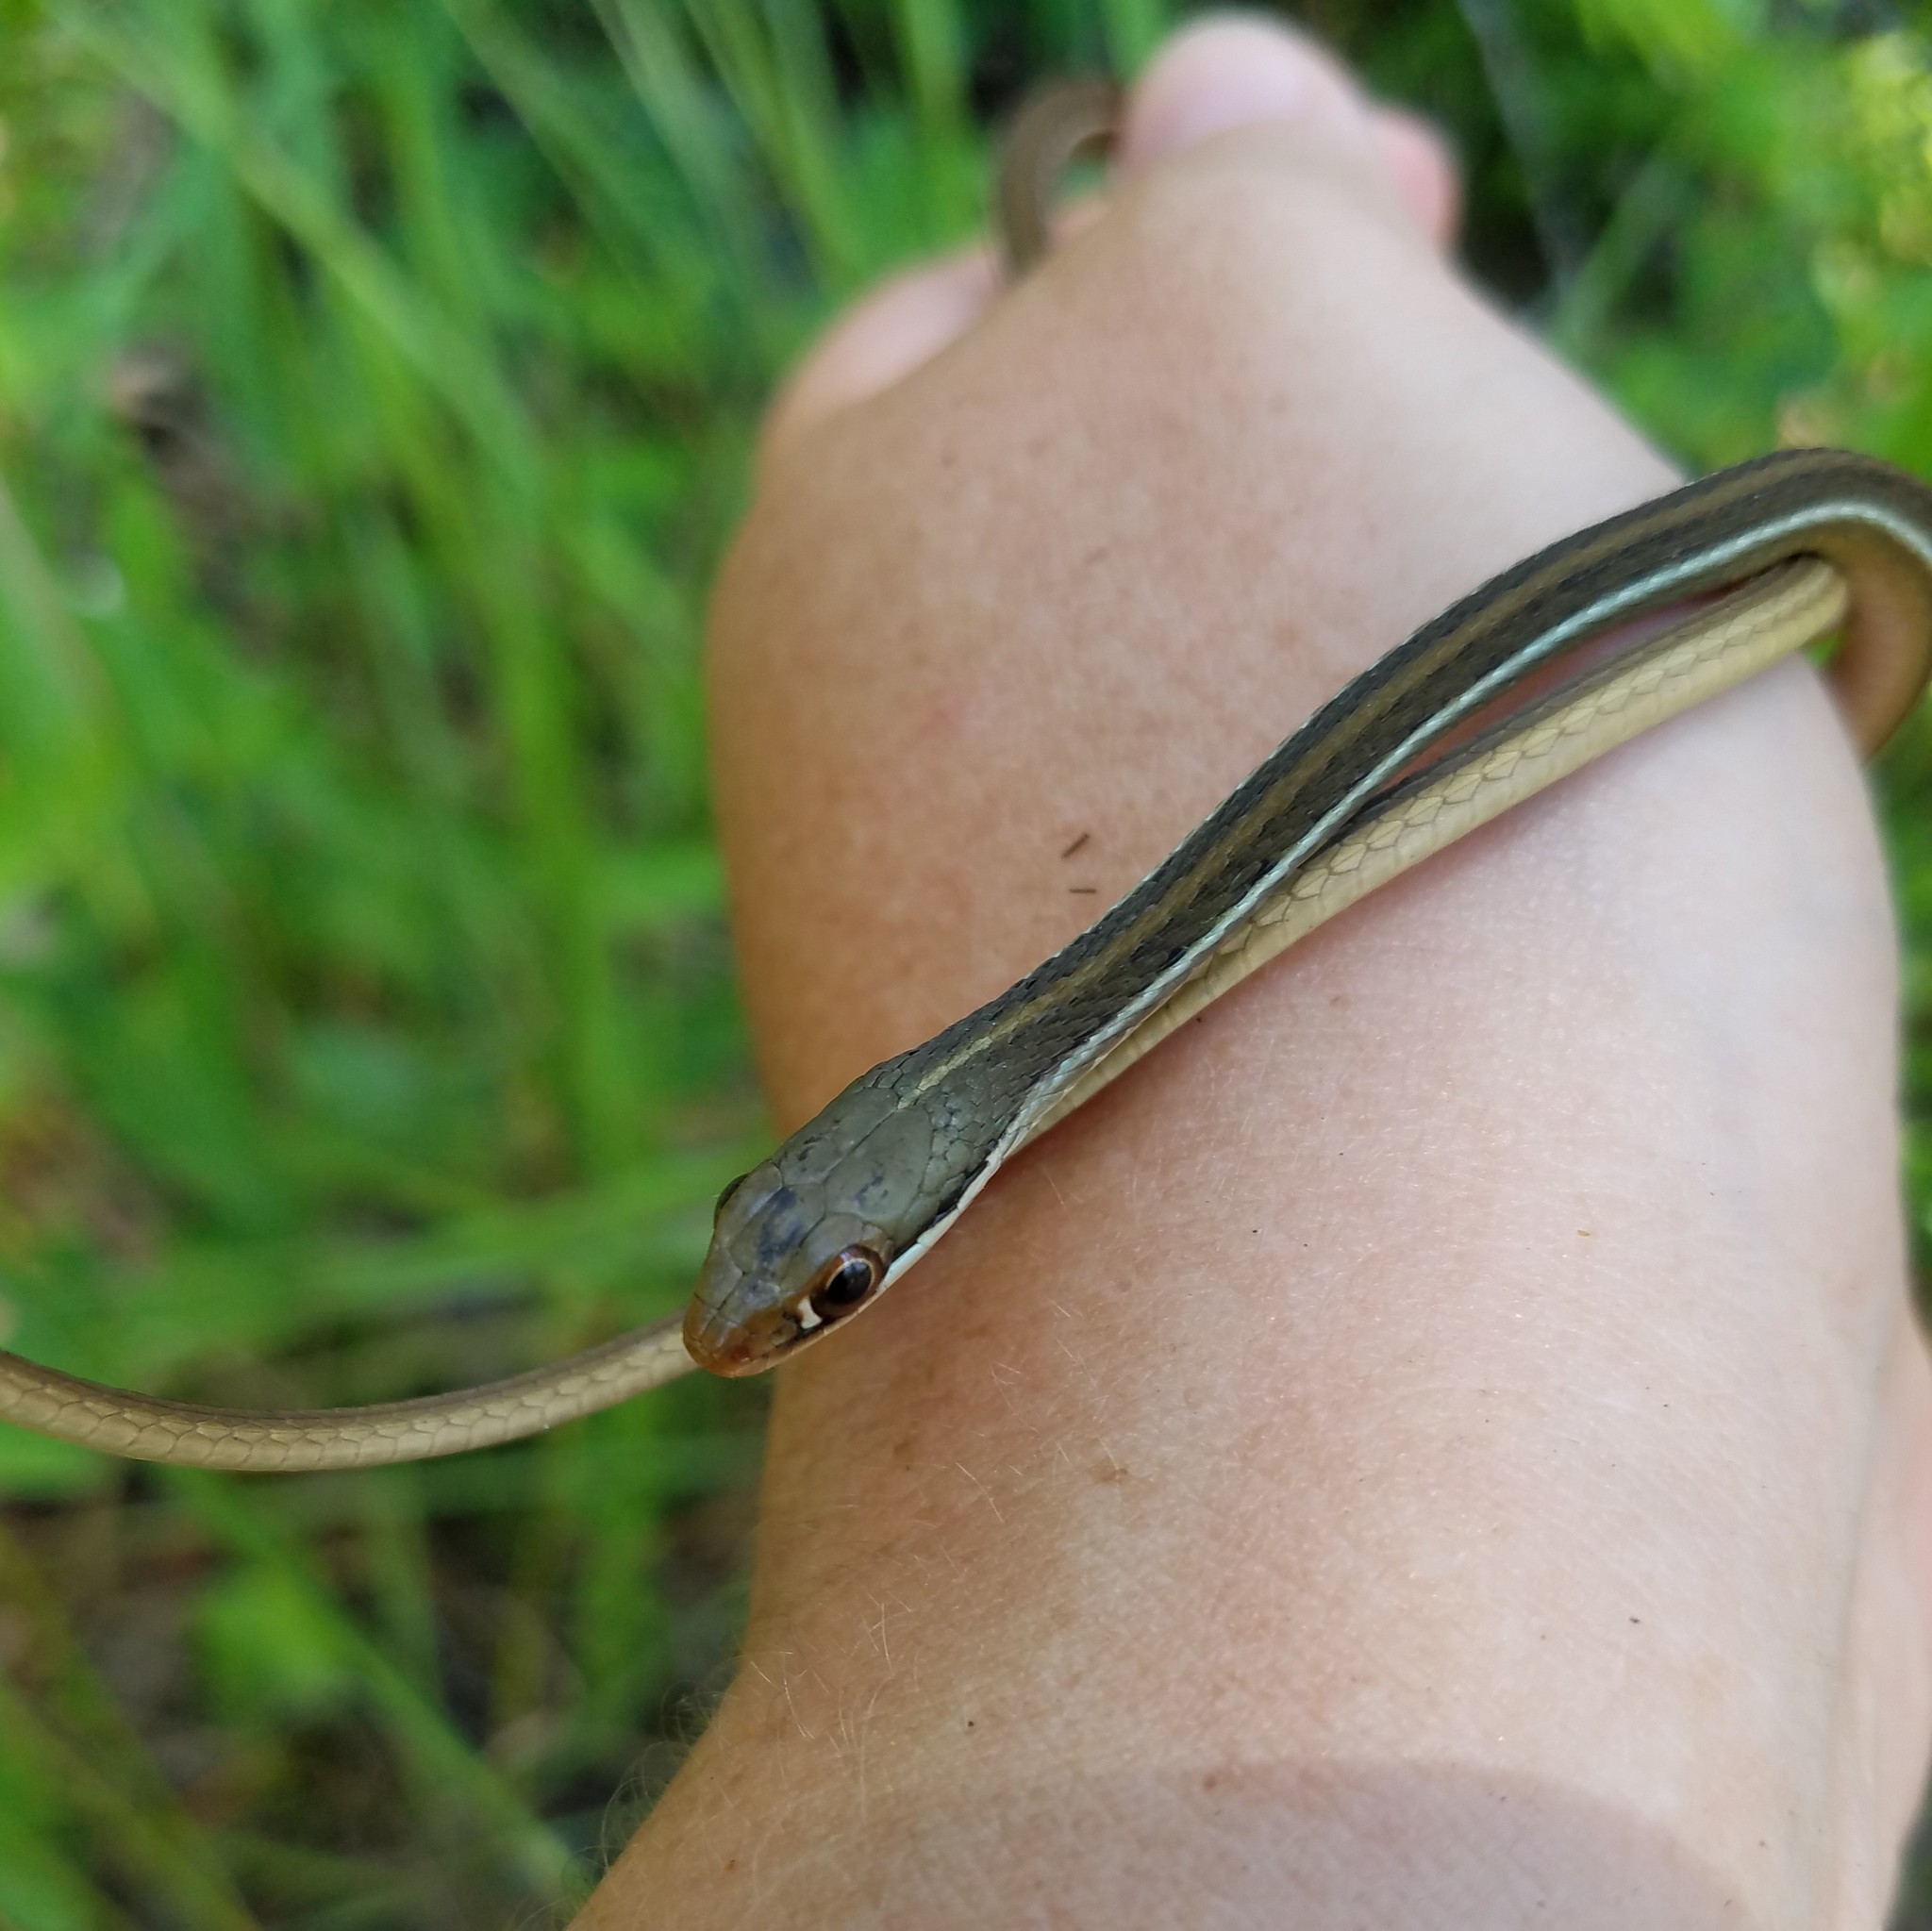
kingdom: Animalia
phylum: Chordata
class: Squamata
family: Colubridae
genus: Thamnophis
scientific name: Thamnophis saurita
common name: Eastern ribbonsnake
